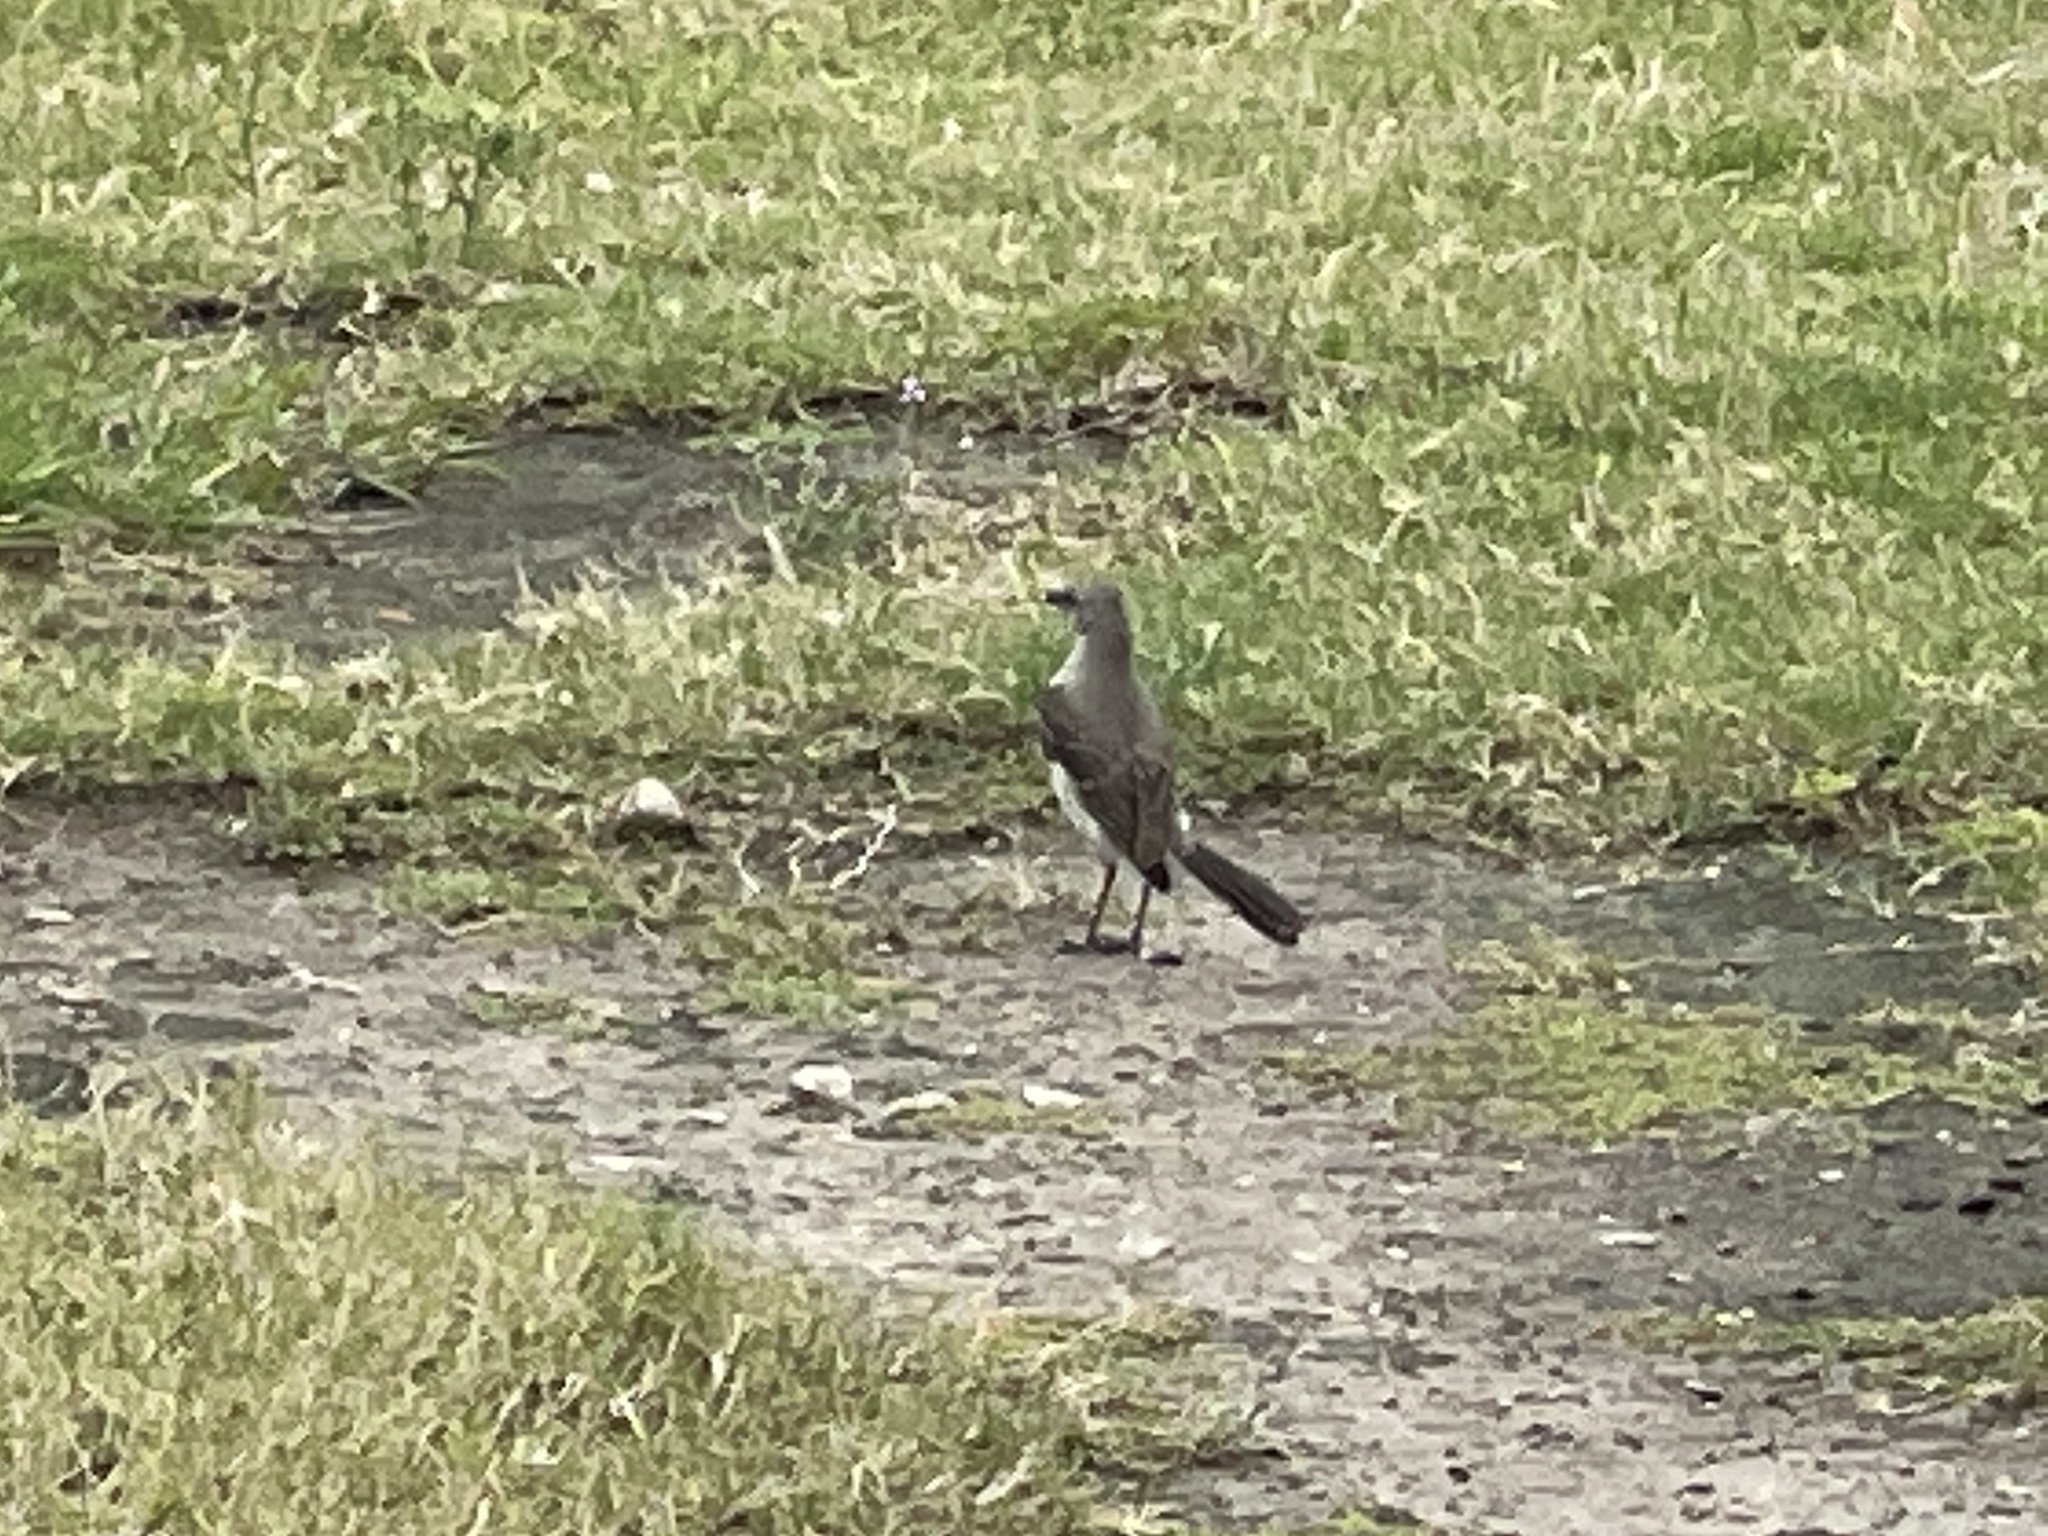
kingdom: Animalia
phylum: Chordata
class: Aves
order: Passeriformes
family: Mimidae
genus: Mimus
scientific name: Mimus polyglottos
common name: Northern mockingbird
